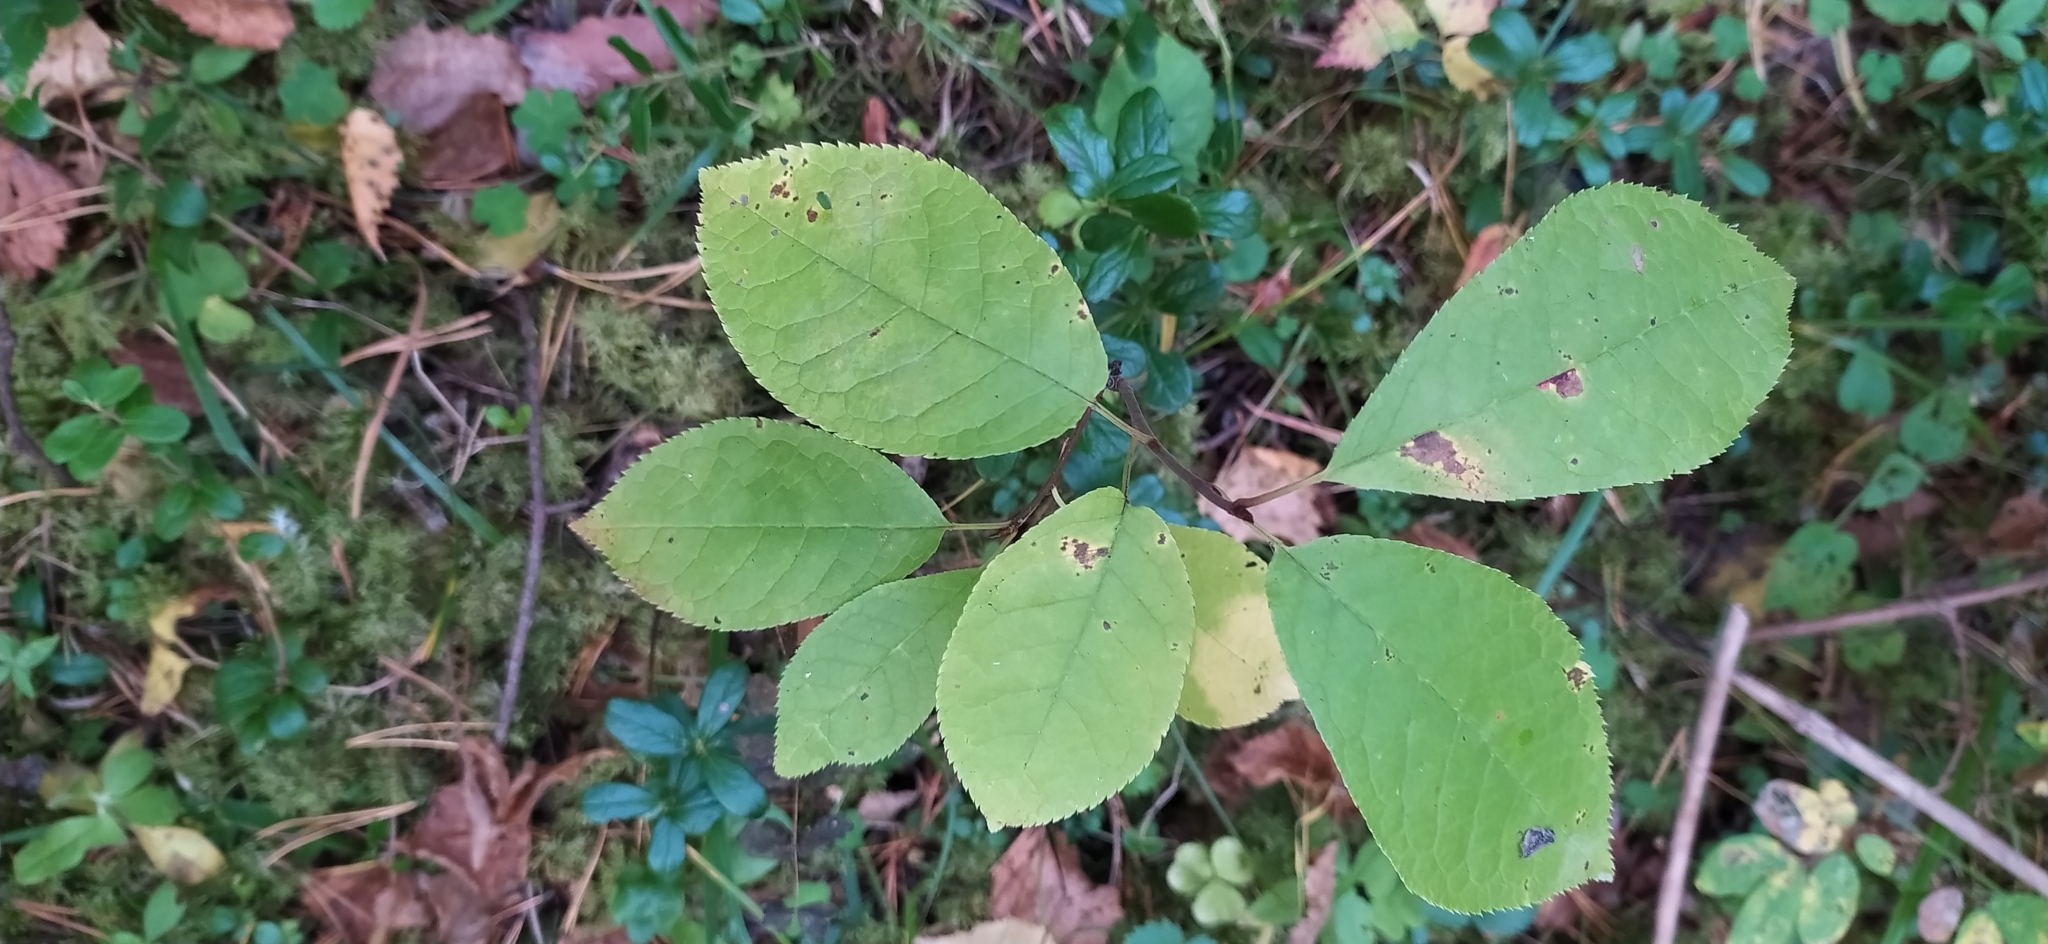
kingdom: Plantae
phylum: Tracheophyta
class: Magnoliopsida
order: Rosales
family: Rosaceae
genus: Prunus
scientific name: Prunus padus
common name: Bird cherry
